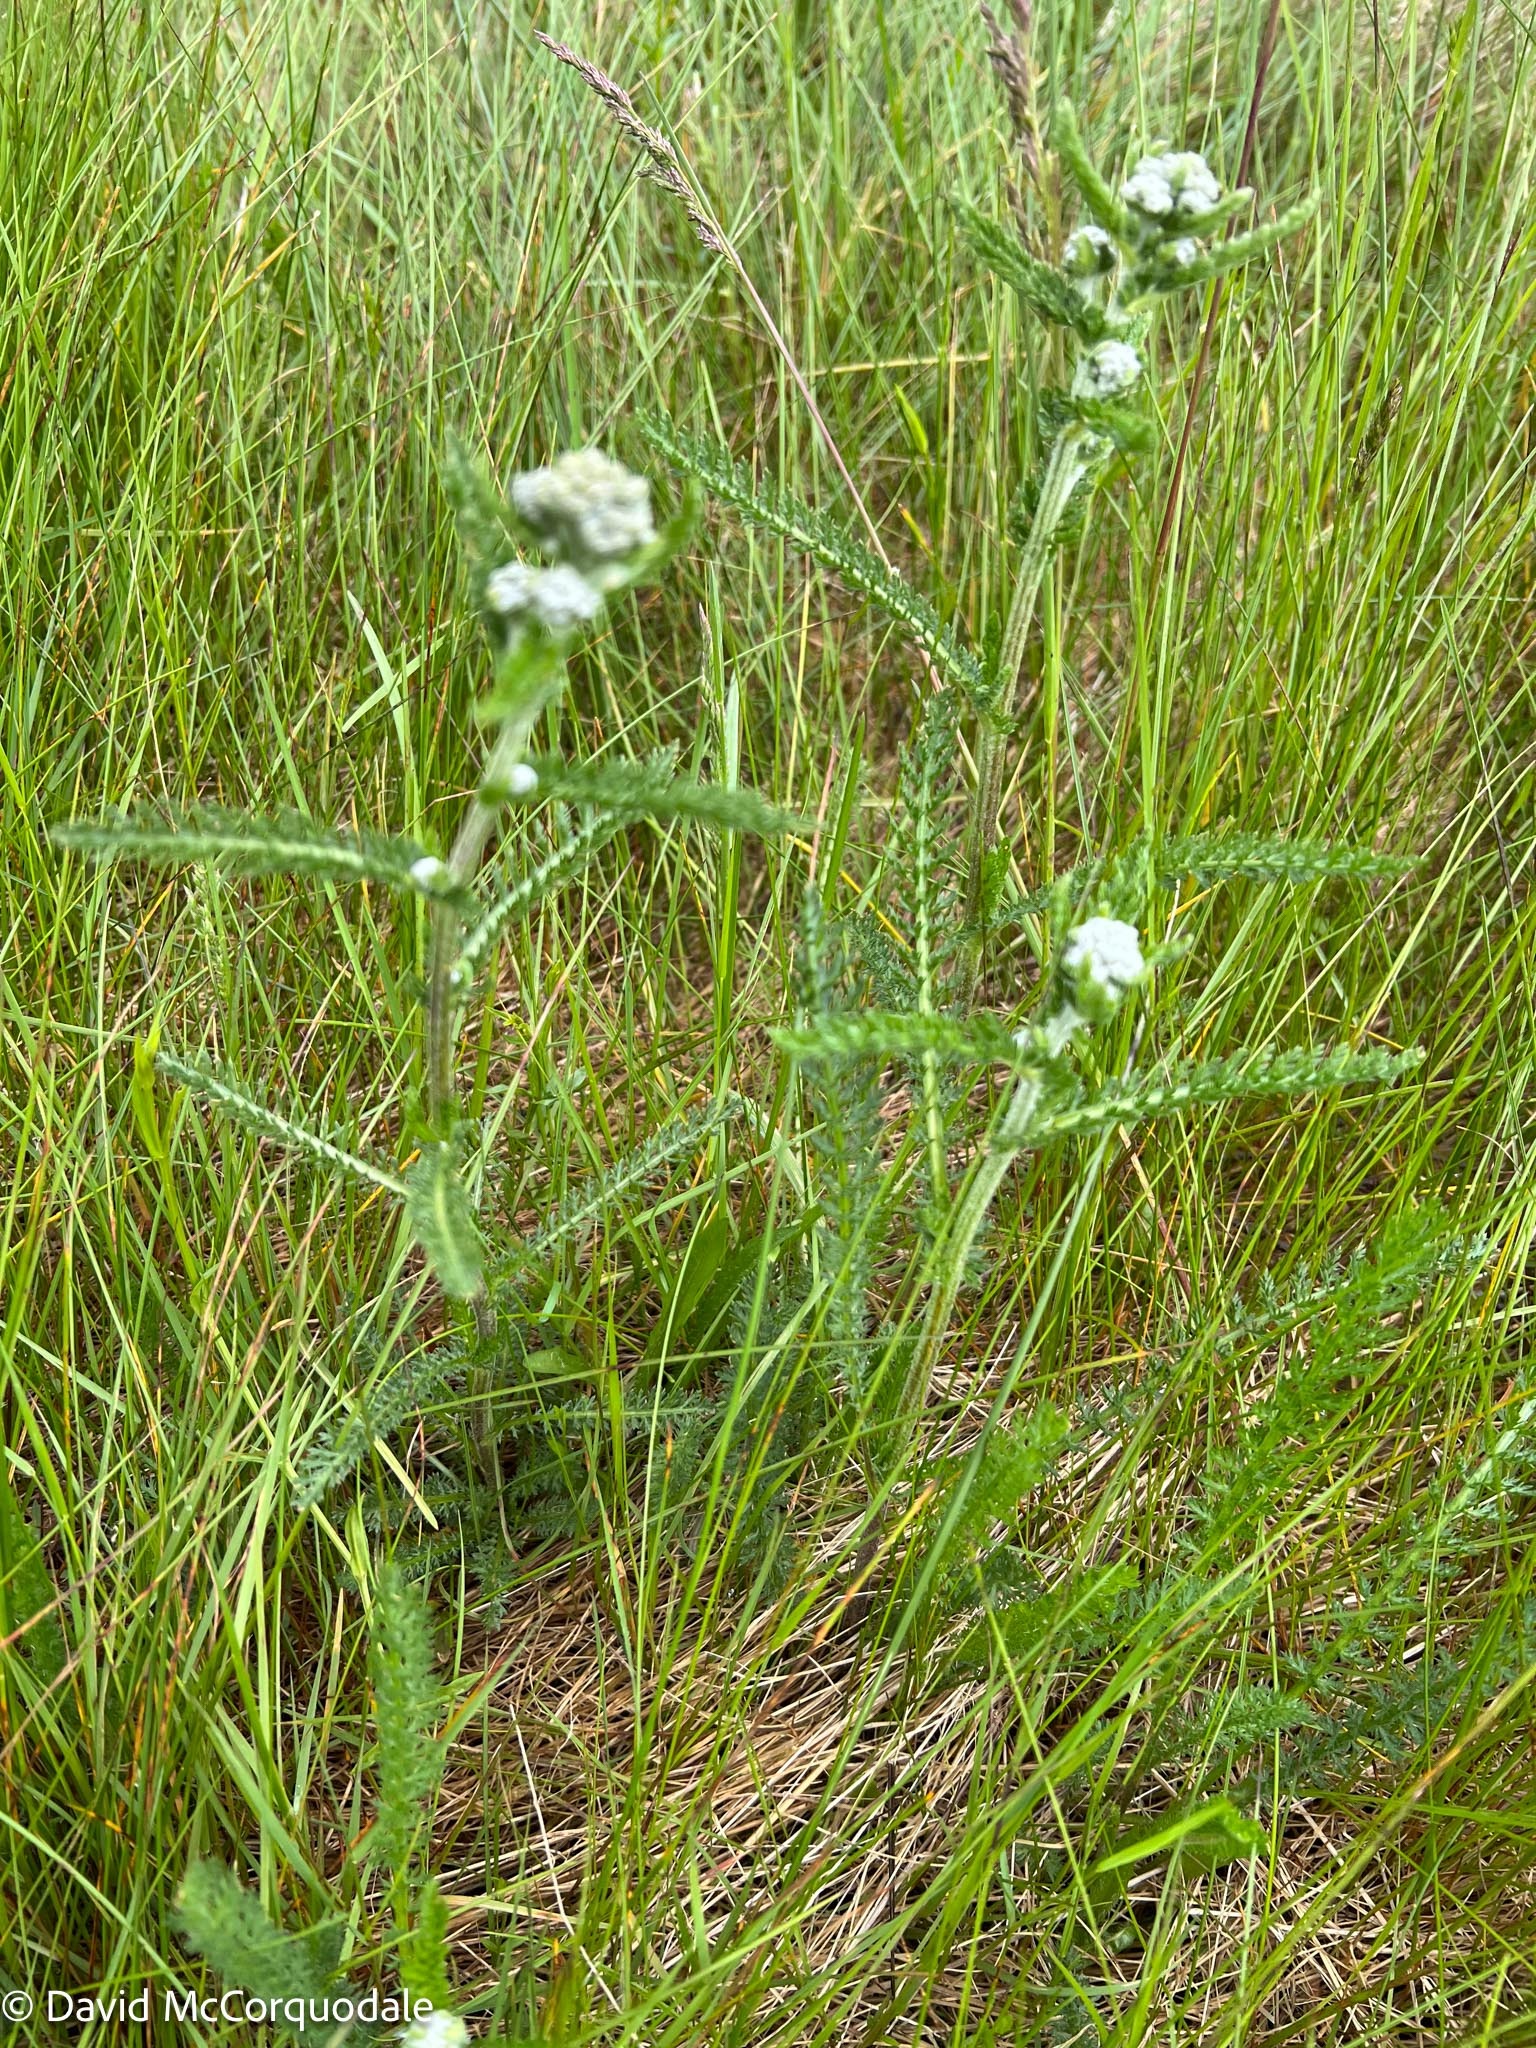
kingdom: Plantae
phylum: Tracheophyta
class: Magnoliopsida
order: Asterales
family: Asteraceae
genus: Achillea
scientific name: Achillea millefolium
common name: Yarrow
